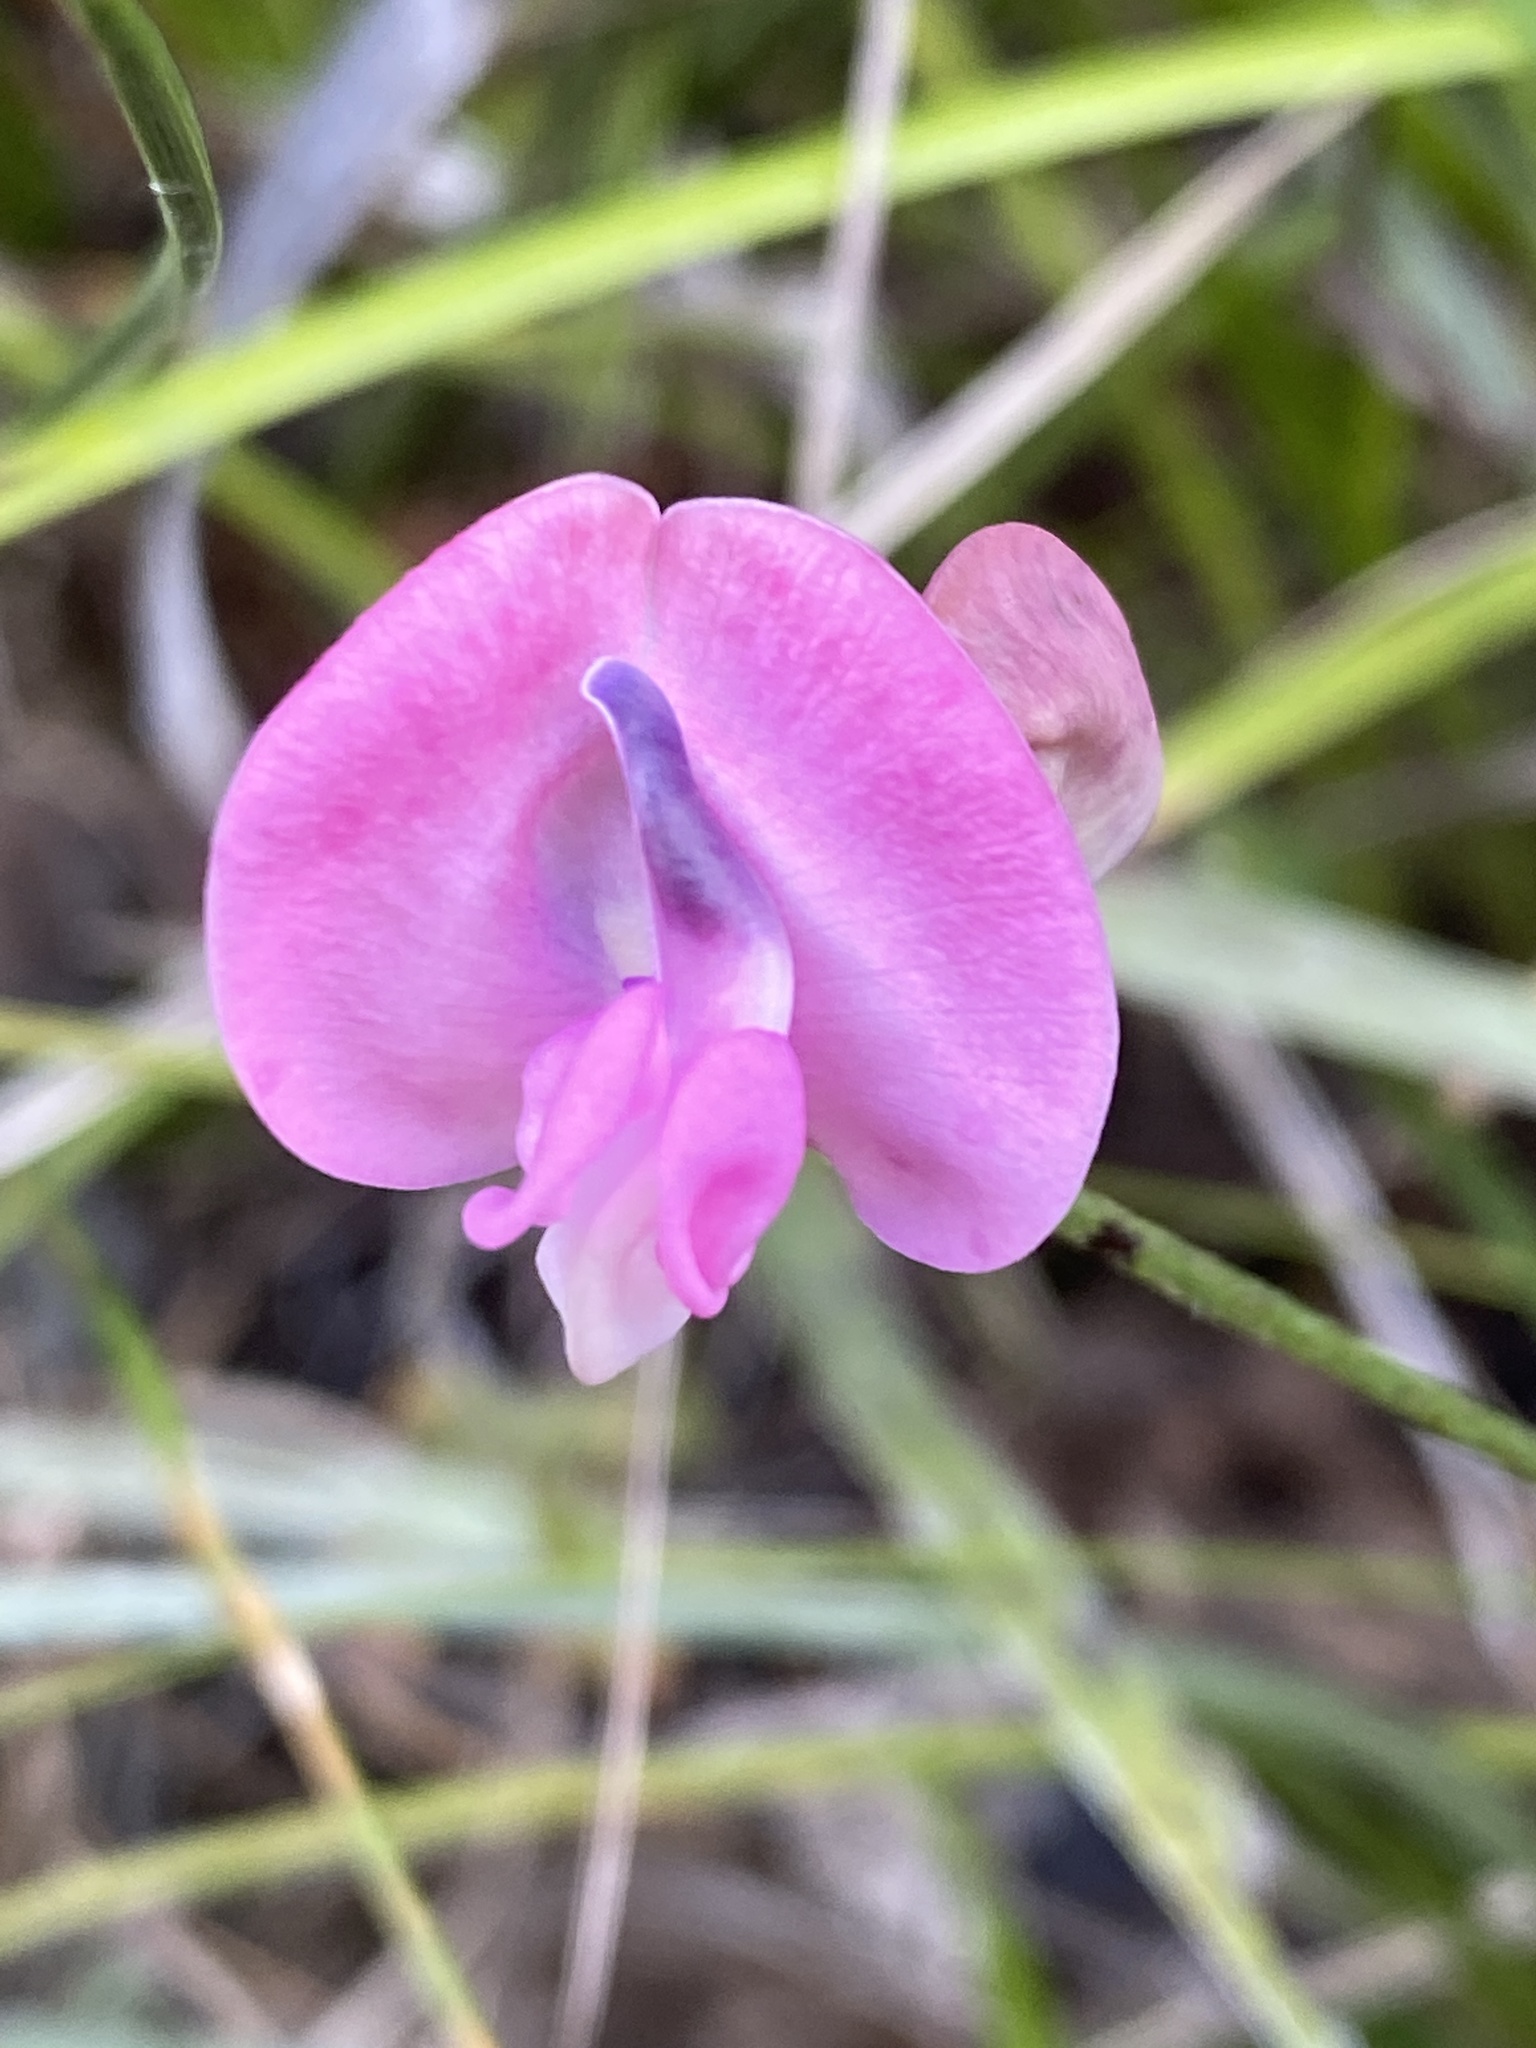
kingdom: Plantae
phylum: Tracheophyta
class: Magnoliopsida
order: Fabales
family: Fabaceae
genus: Strophostyles
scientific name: Strophostyles umbellata
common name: Perennial wild bean
